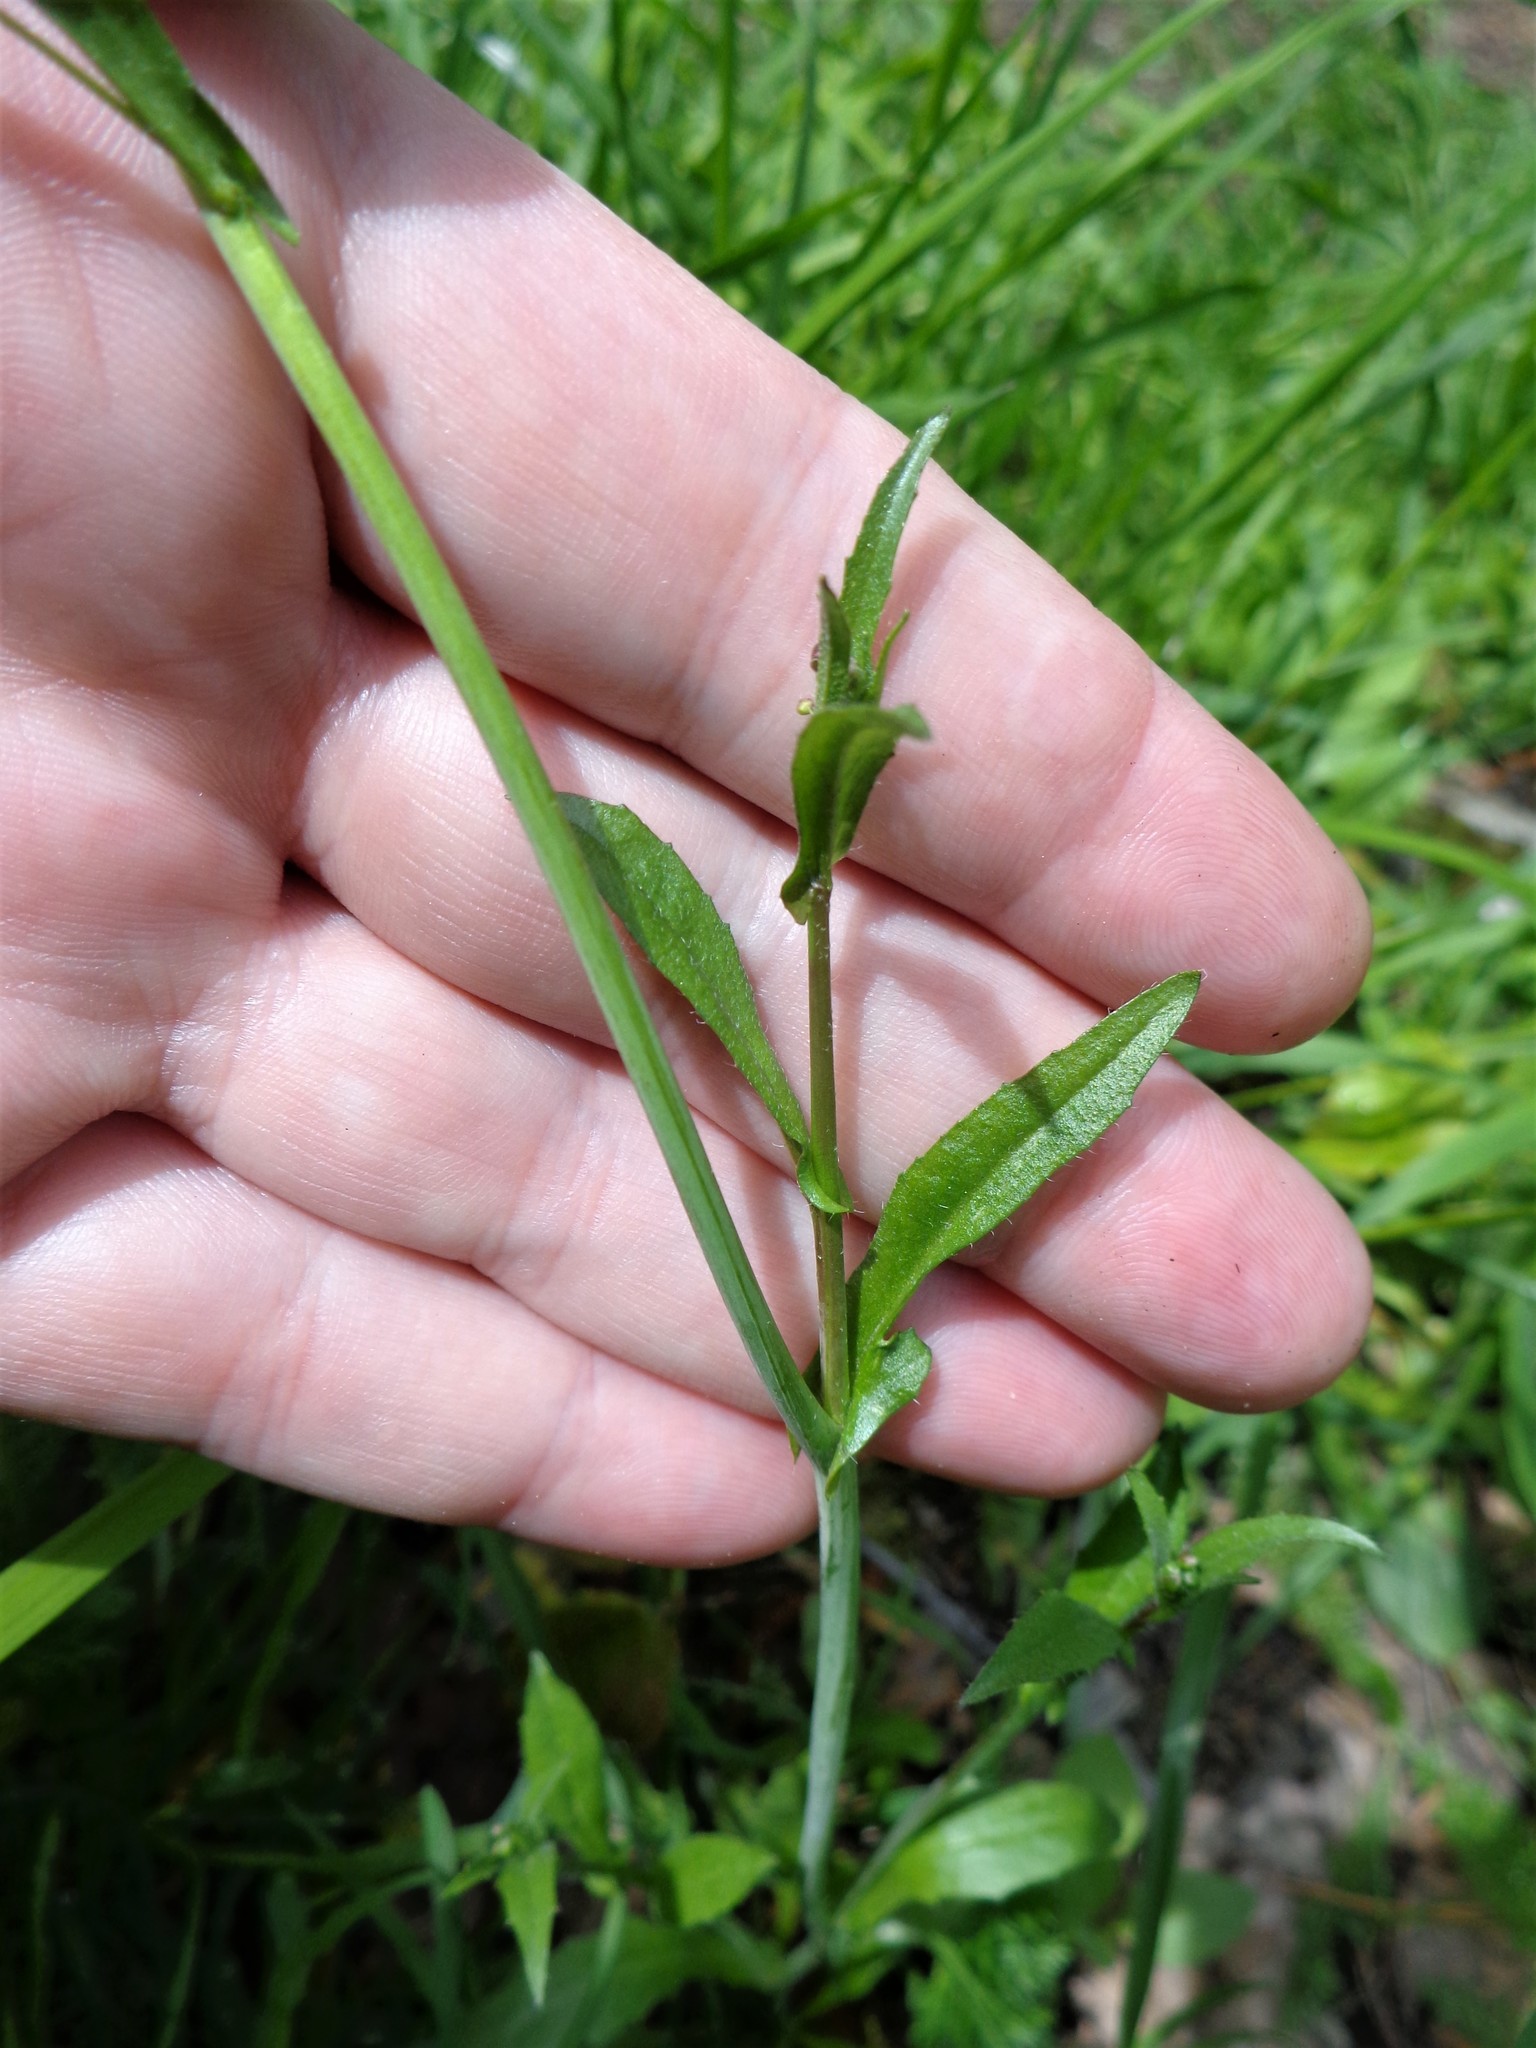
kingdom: Plantae
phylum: Tracheophyta
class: Magnoliopsida
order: Brassicales
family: Brassicaceae
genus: Capsella
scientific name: Capsella bursa-pastoris
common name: Shepherd's purse
